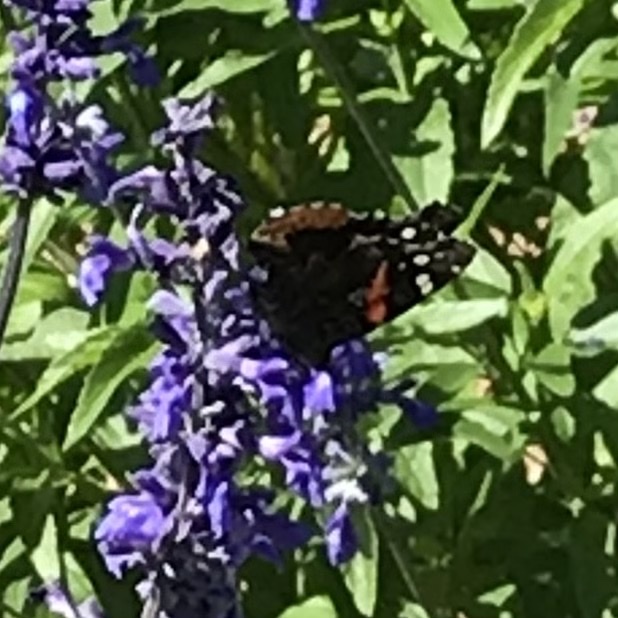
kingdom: Animalia
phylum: Arthropoda
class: Insecta
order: Lepidoptera
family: Nymphalidae
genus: Vanessa
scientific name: Vanessa atalanta
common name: Red admiral
